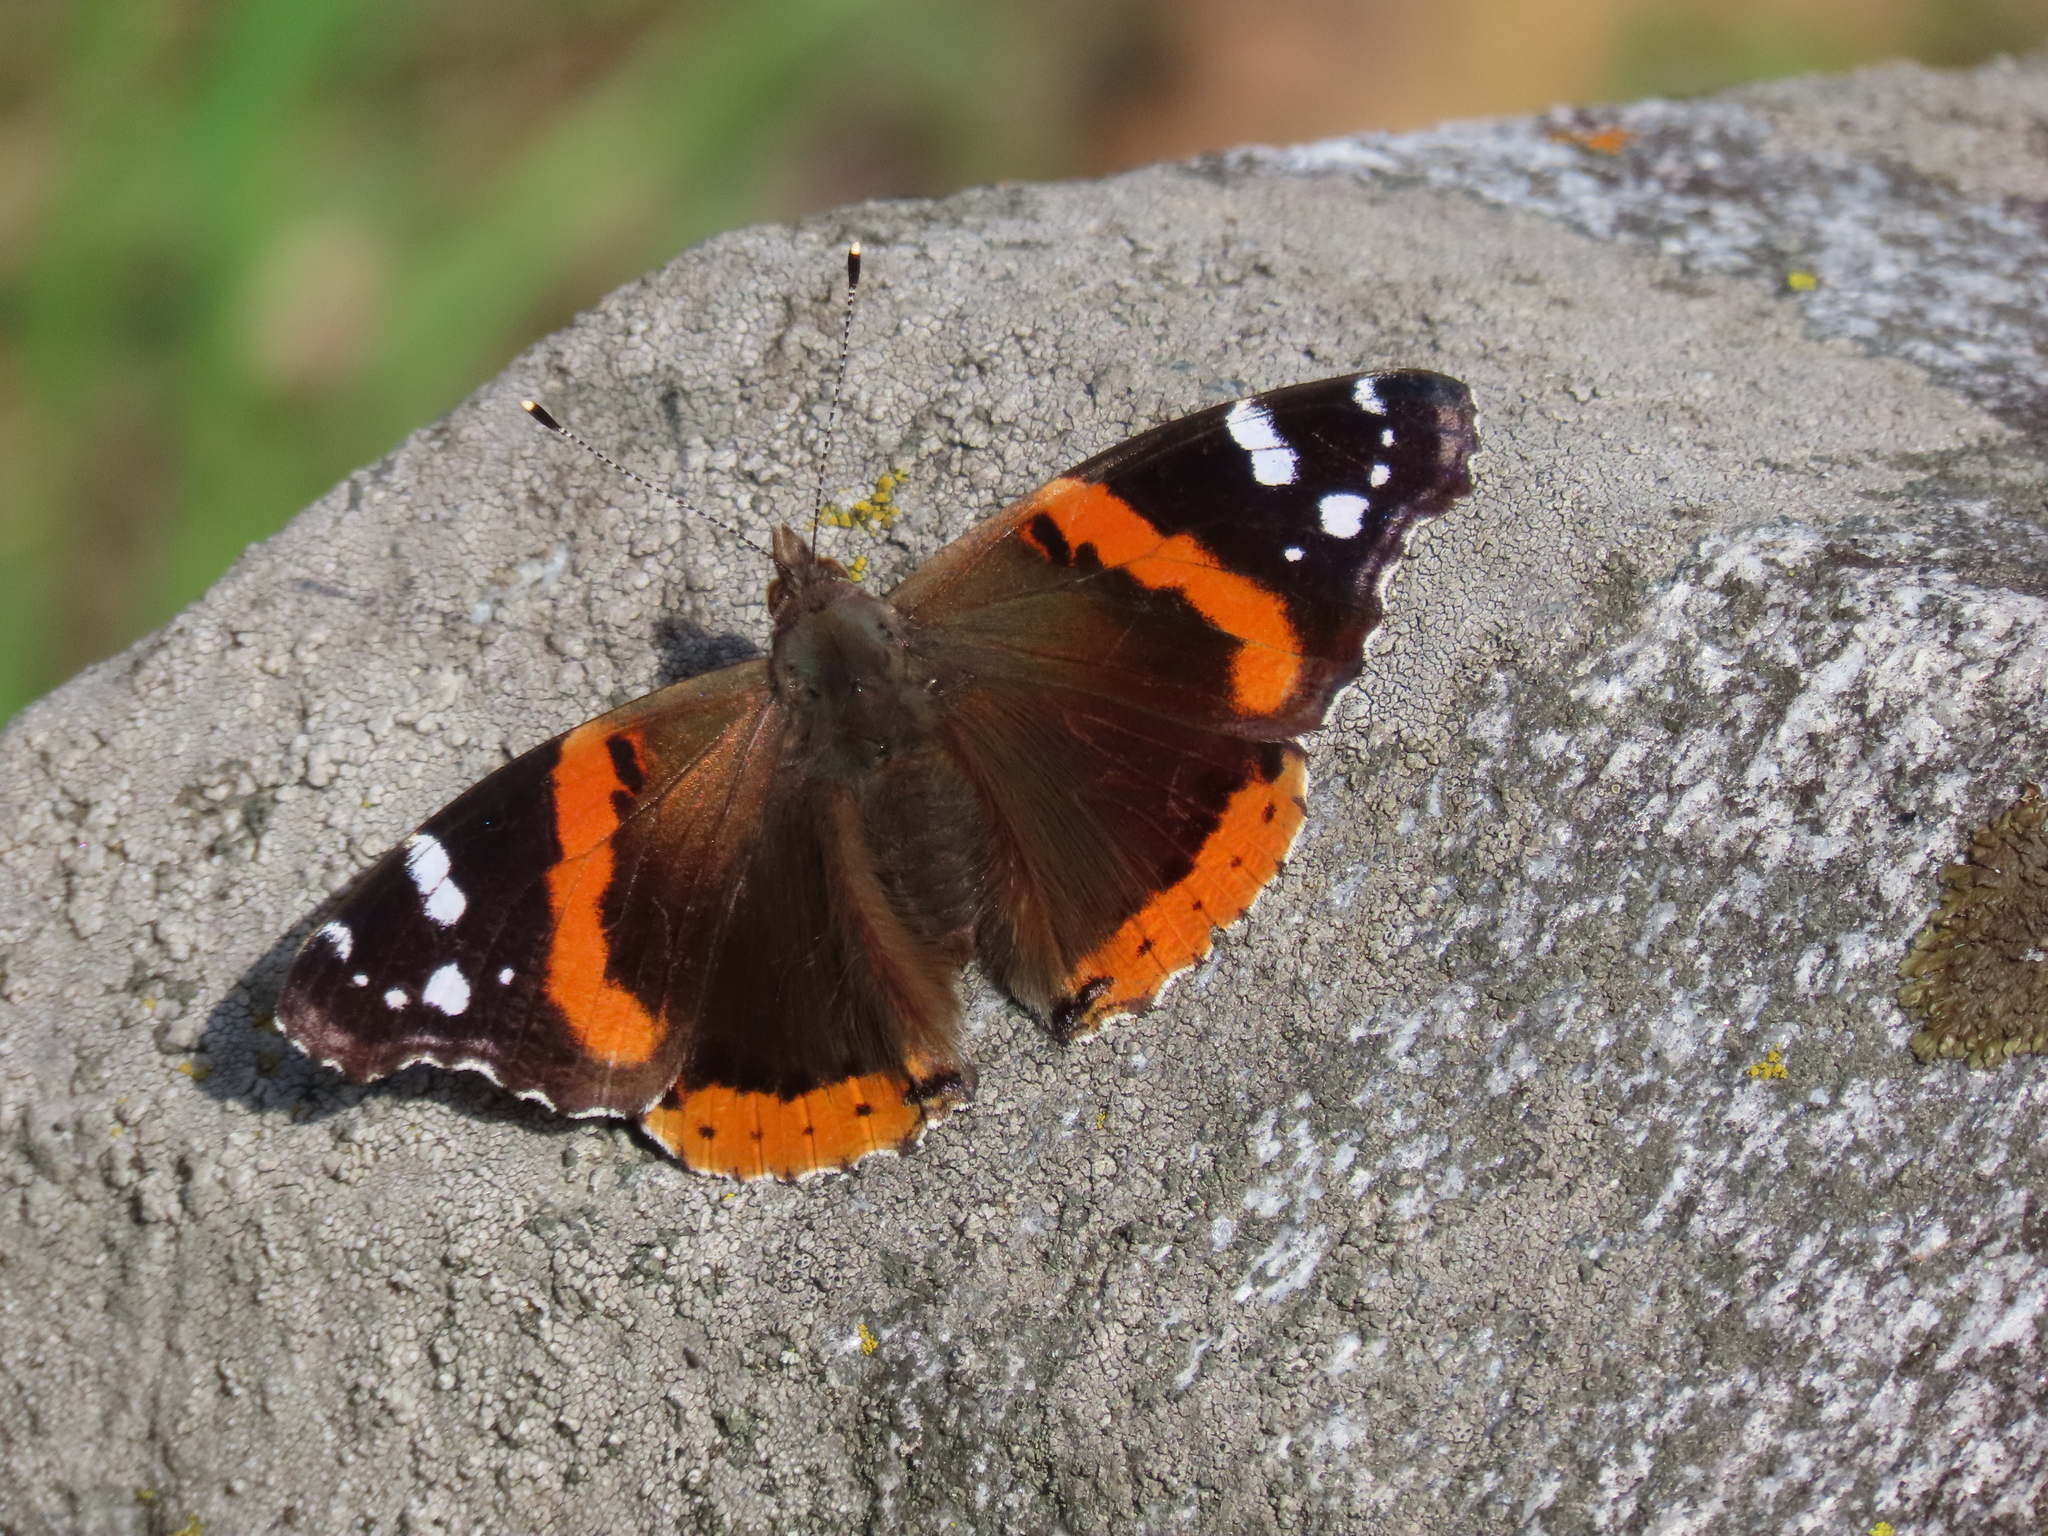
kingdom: Animalia
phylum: Arthropoda
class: Insecta
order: Lepidoptera
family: Nymphalidae
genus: Vanessa
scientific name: Vanessa atalanta
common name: Red admiral
